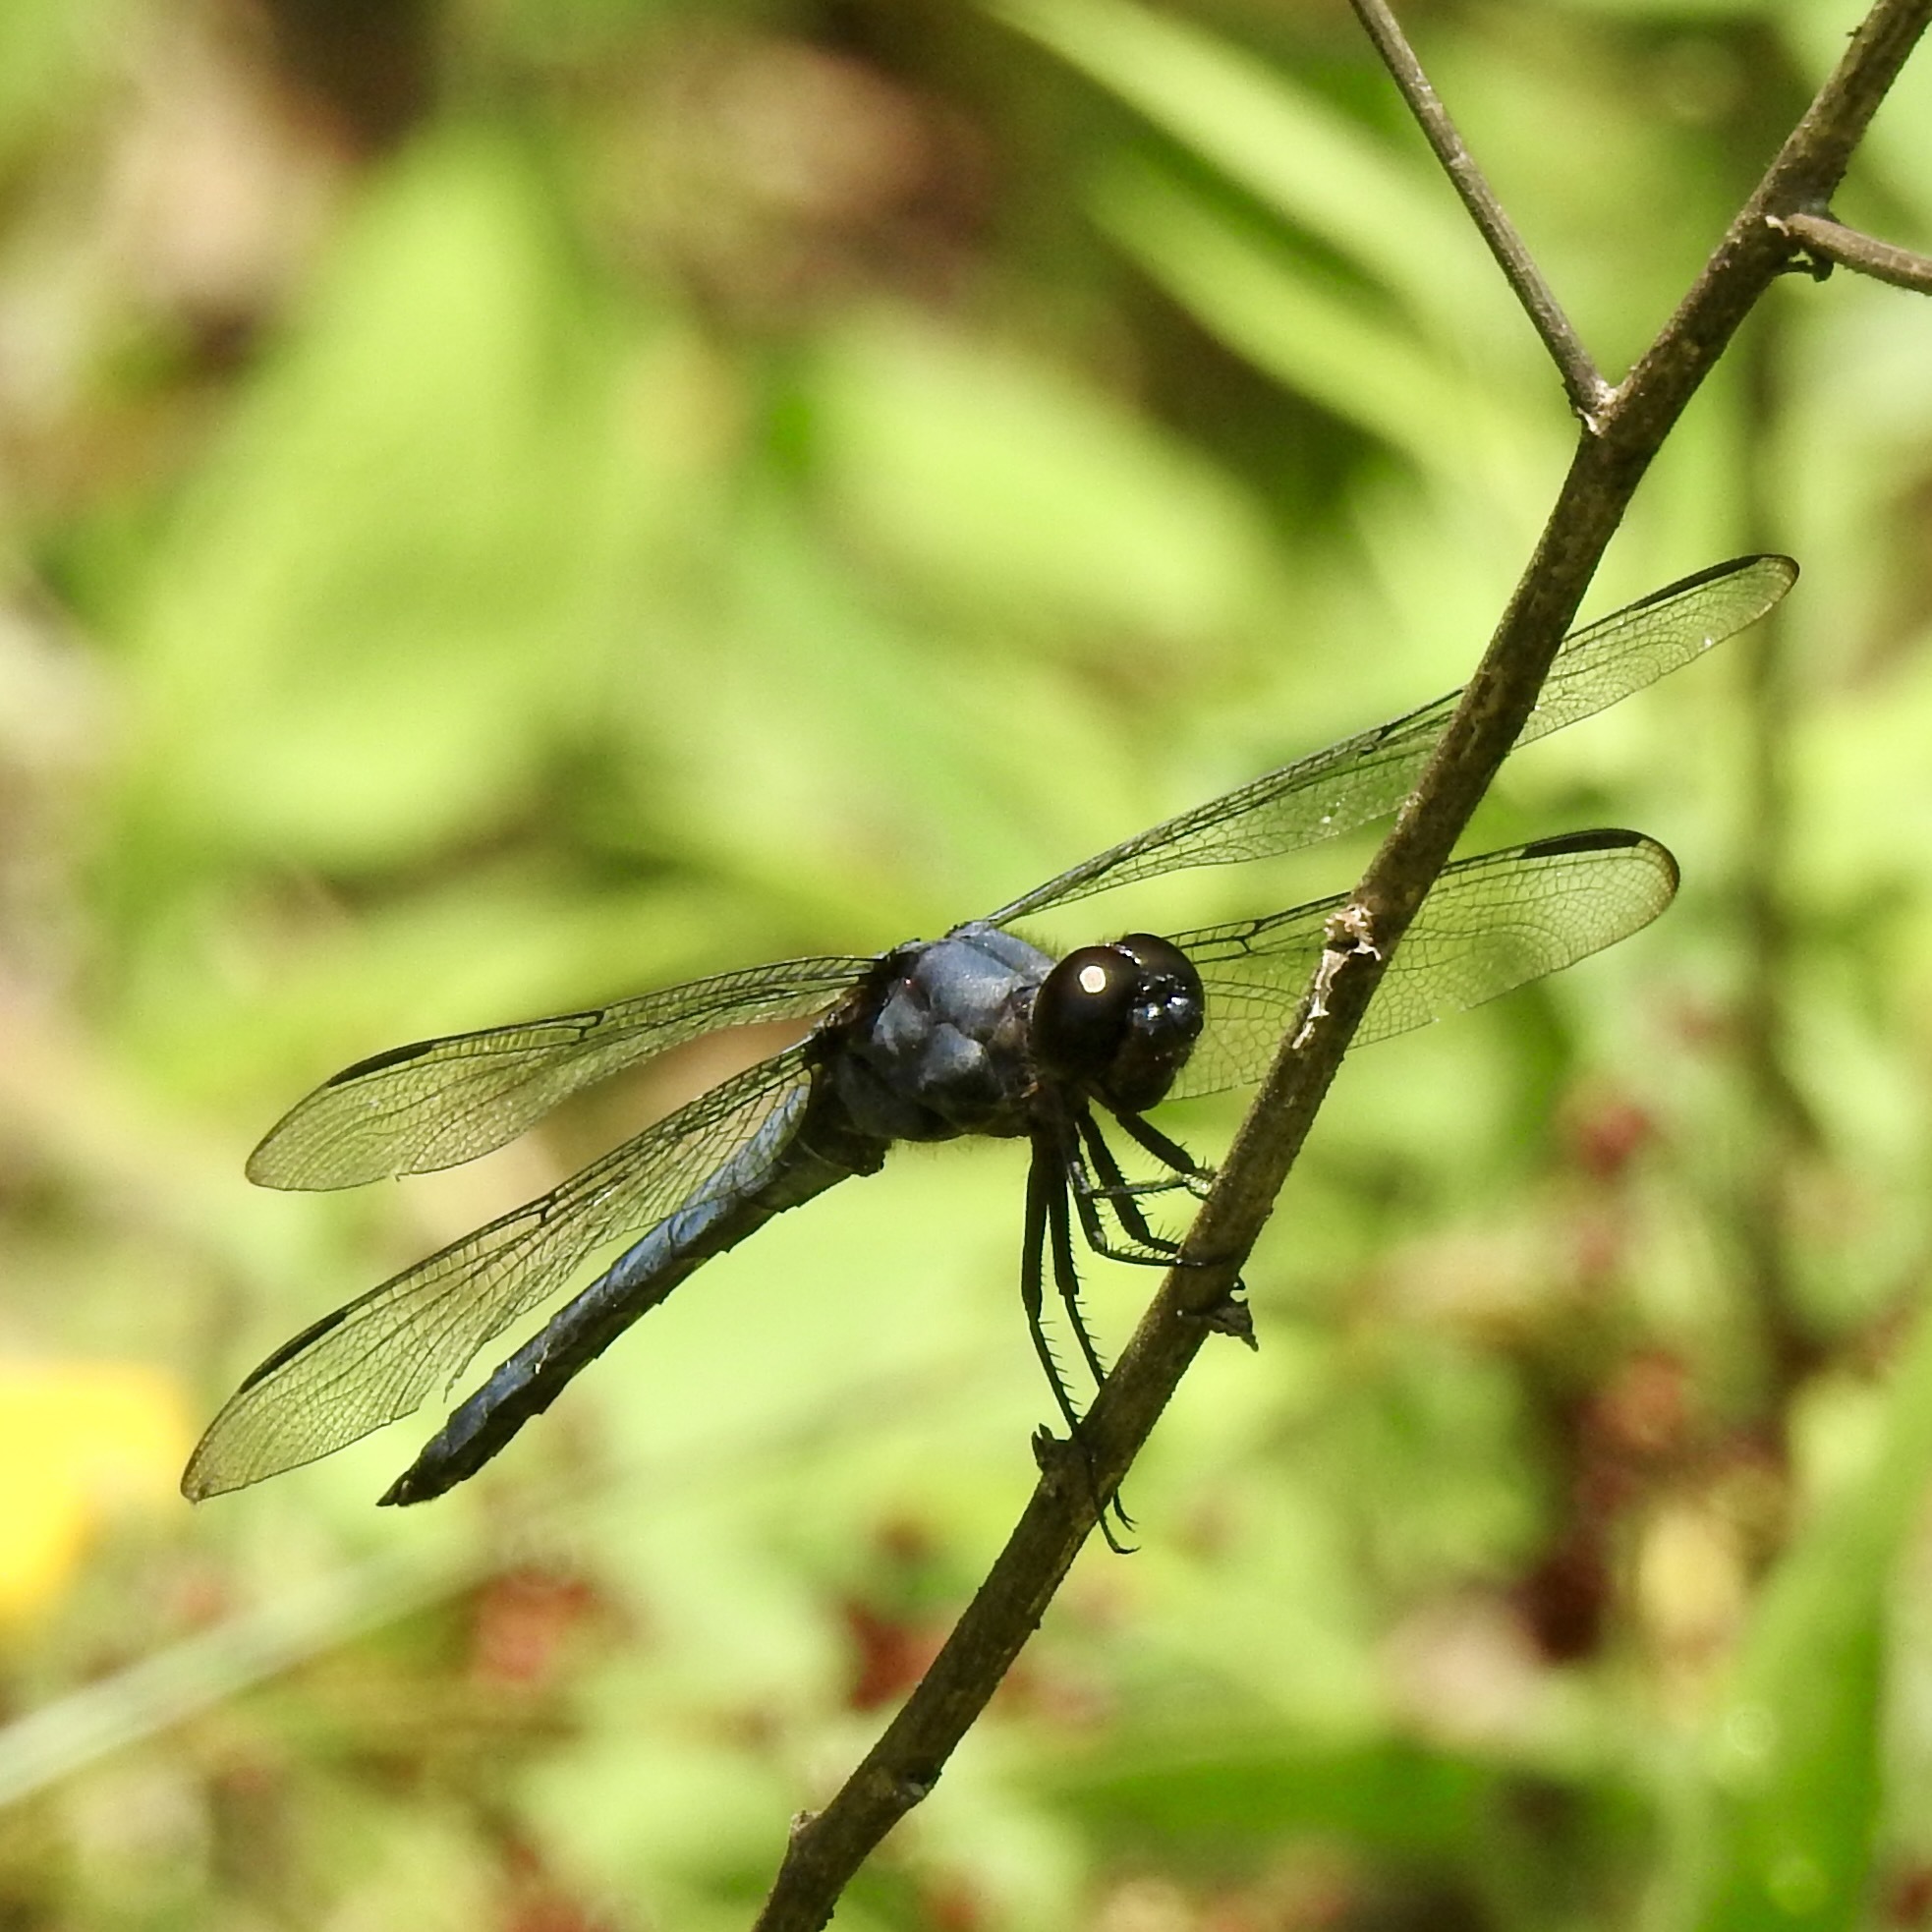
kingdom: Animalia
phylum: Arthropoda
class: Insecta
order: Odonata
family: Libellulidae
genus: Libellula
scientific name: Libellula incesta
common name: Slaty skimmer
